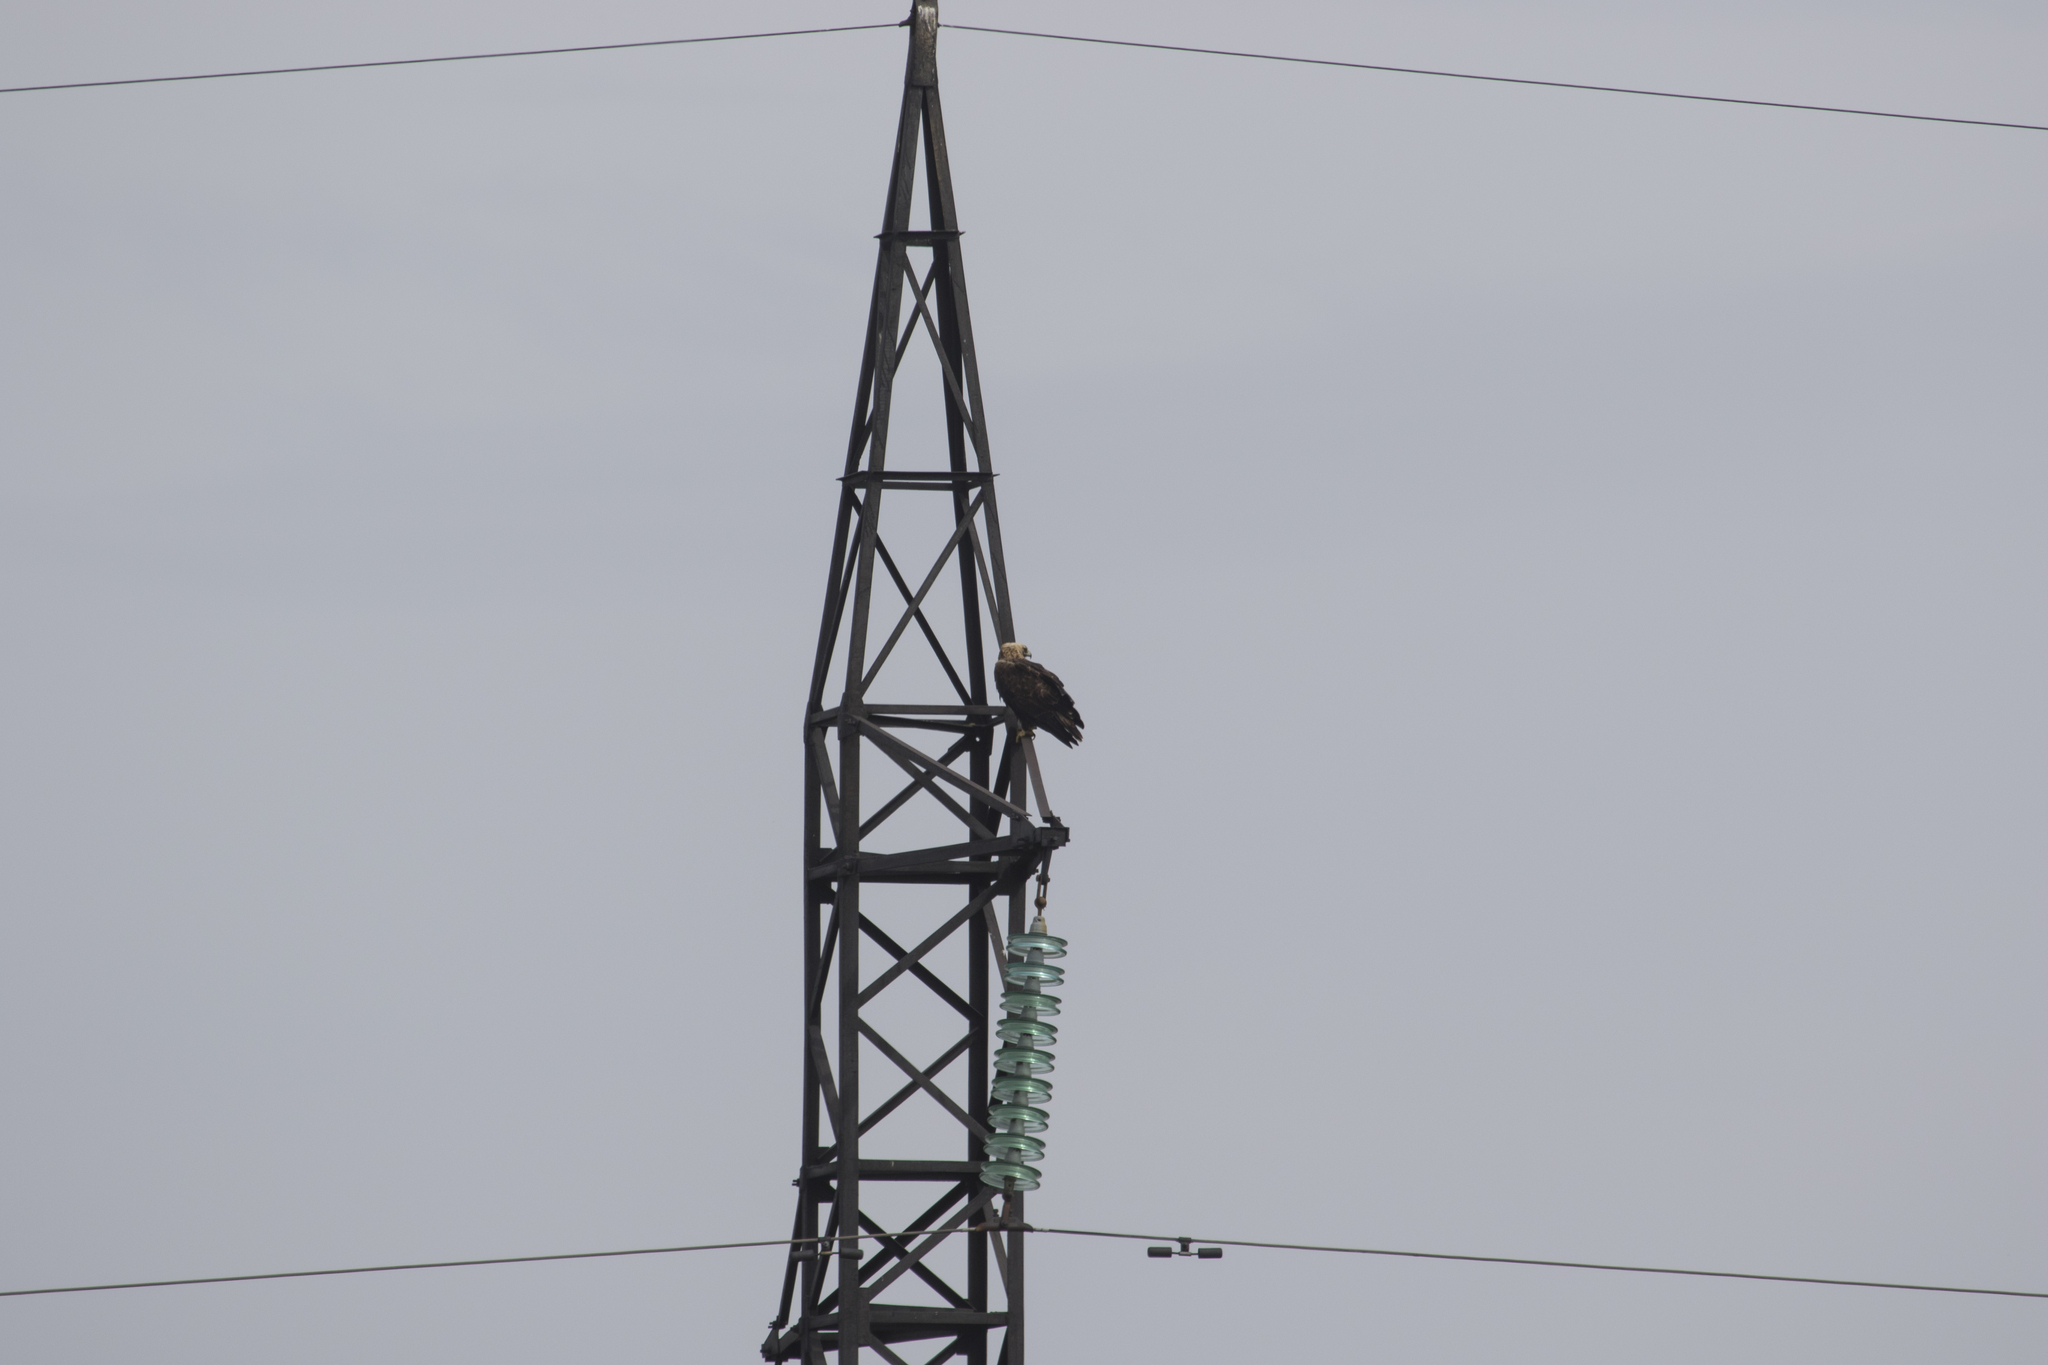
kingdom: Animalia
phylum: Chordata
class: Aves
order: Accipitriformes
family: Accipitridae
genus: Aquila
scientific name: Aquila heliaca
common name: Eastern imperial eagle
